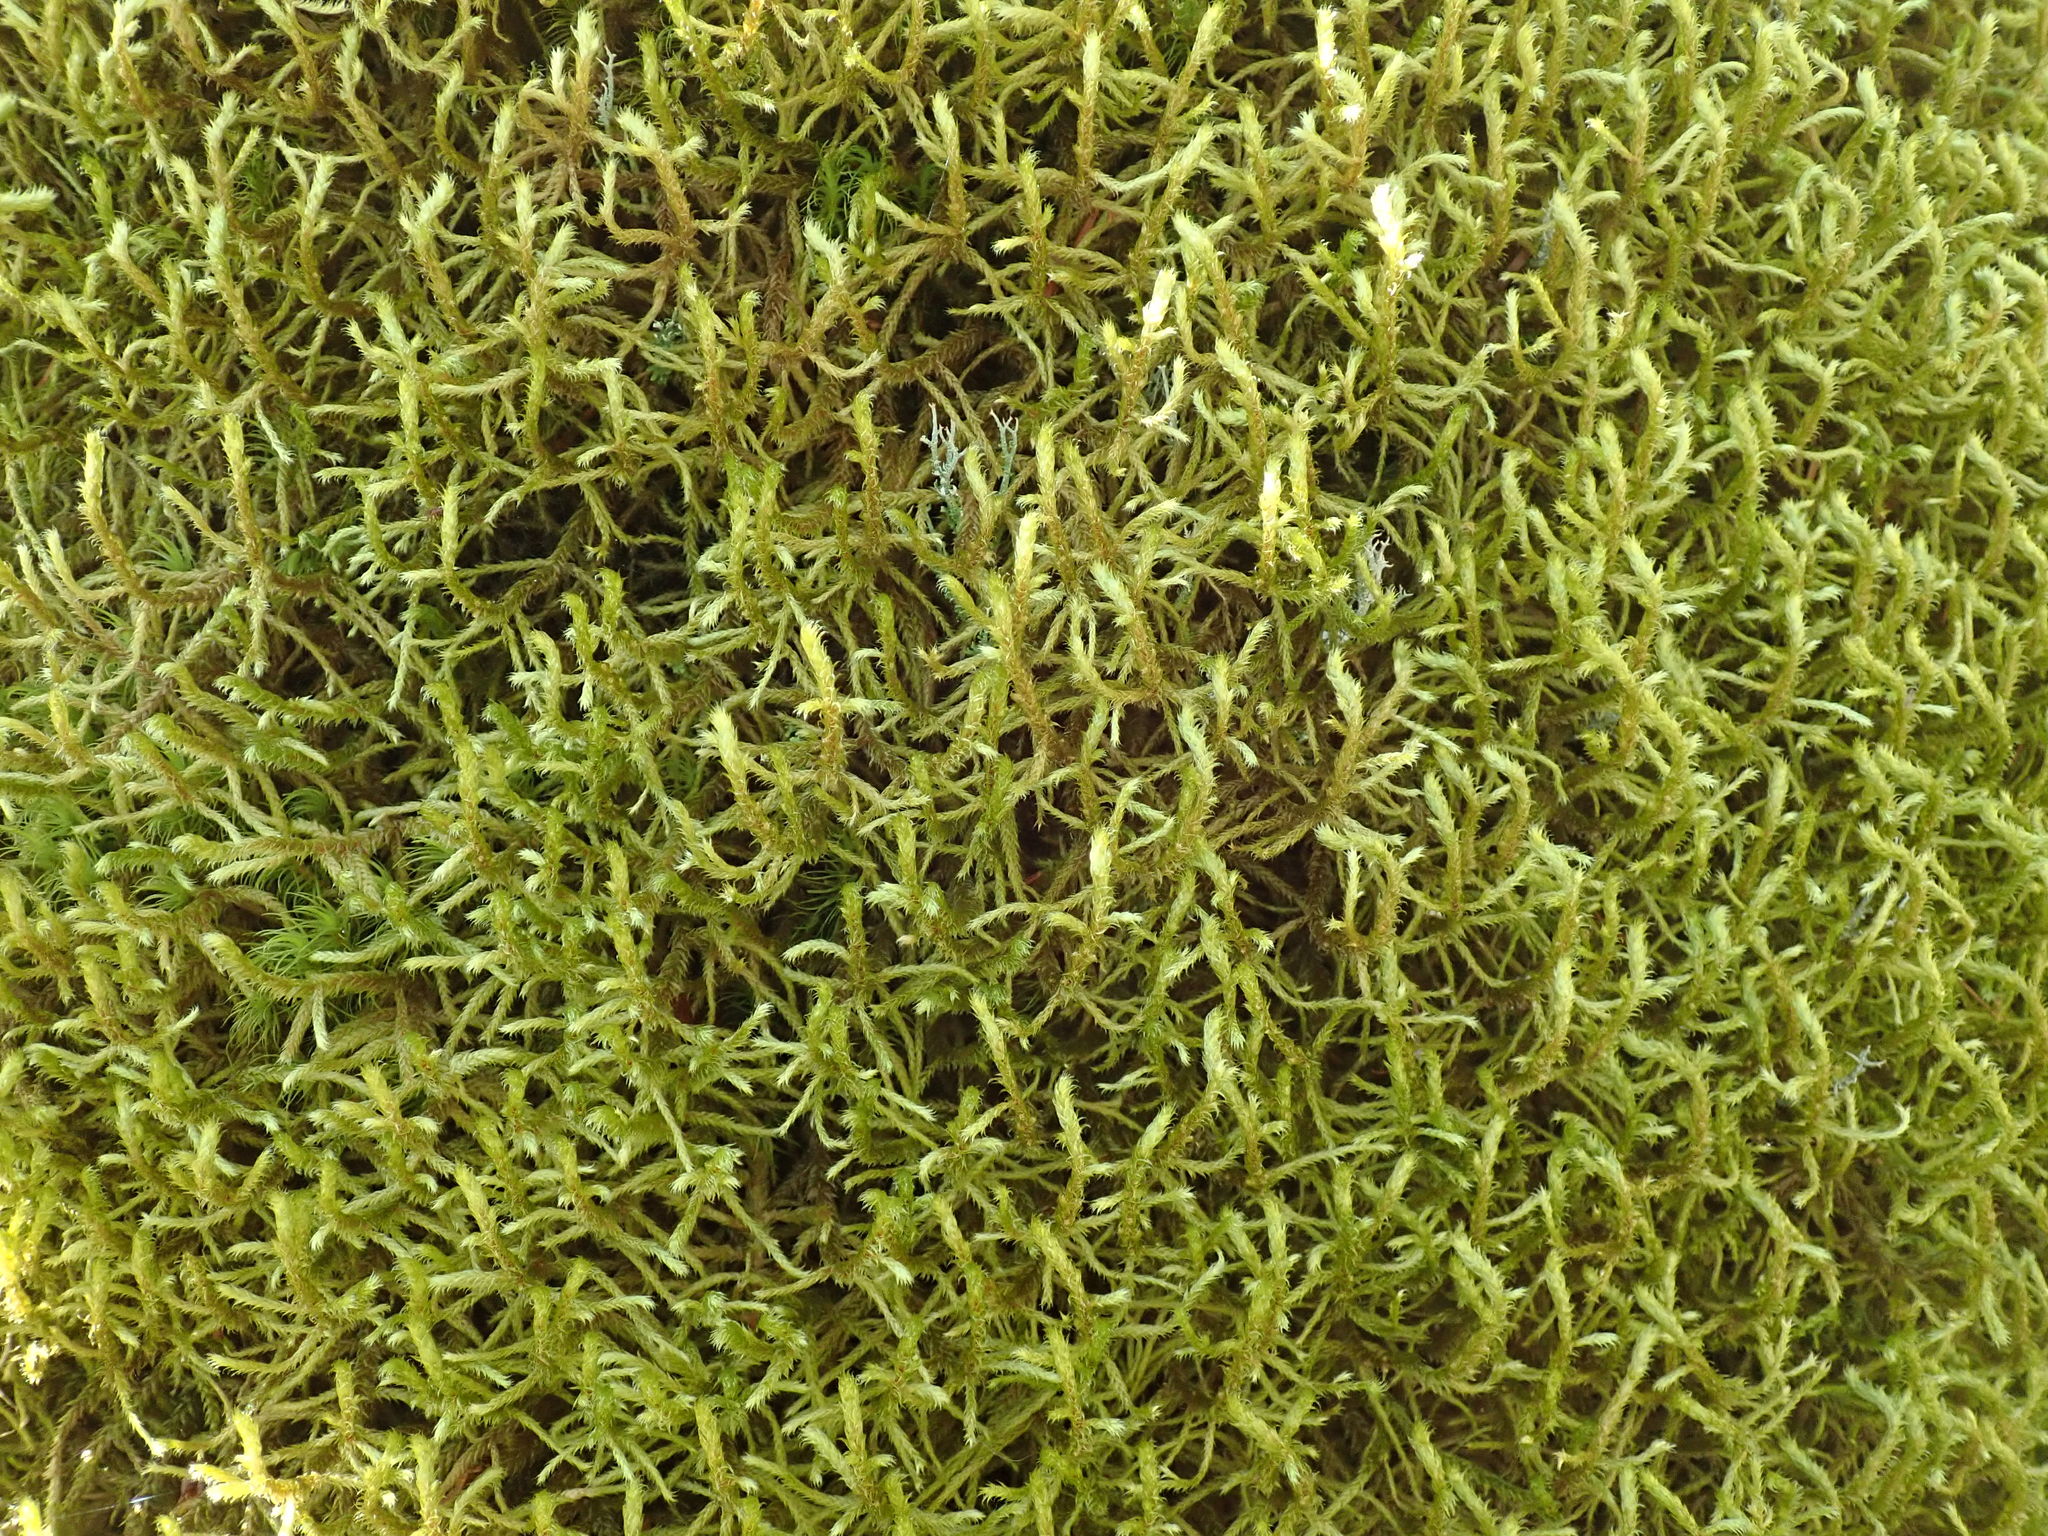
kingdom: Plantae
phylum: Bryophyta
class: Bryopsida
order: Hypnales
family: Antitrichiaceae
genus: Antitrichia
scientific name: Antitrichia curtipendula
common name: Pendulous wing-moss
